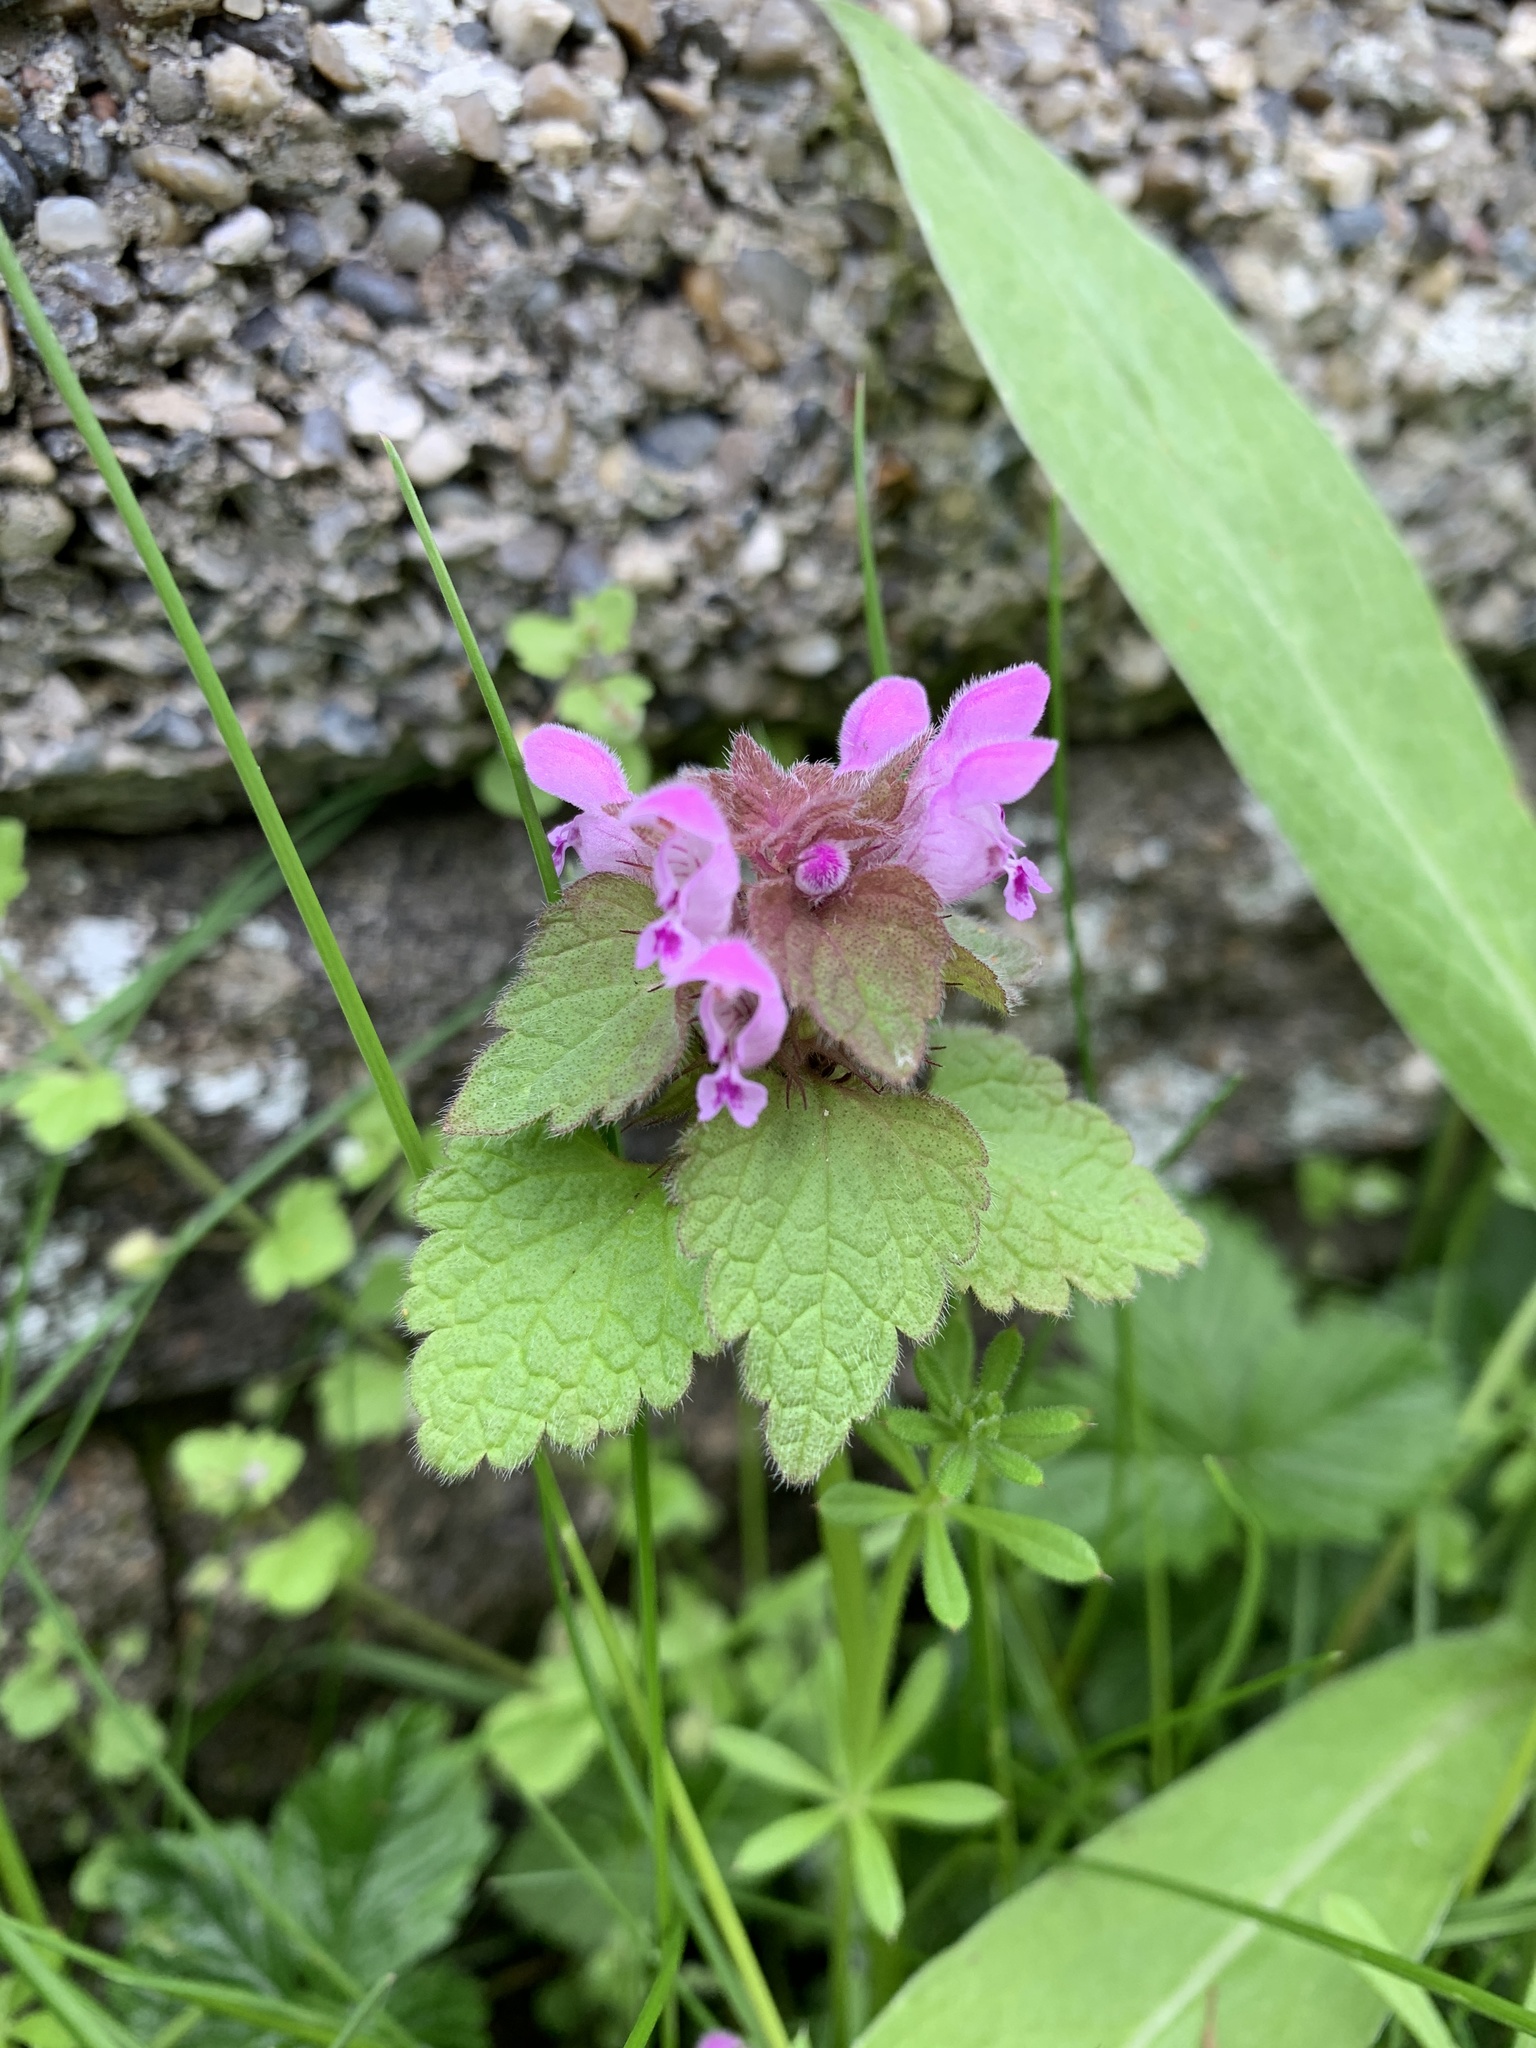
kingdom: Plantae
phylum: Tracheophyta
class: Magnoliopsida
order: Lamiales
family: Lamiaceae
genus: Lamium
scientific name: Lamium purpureum
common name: Red dead-nettle
